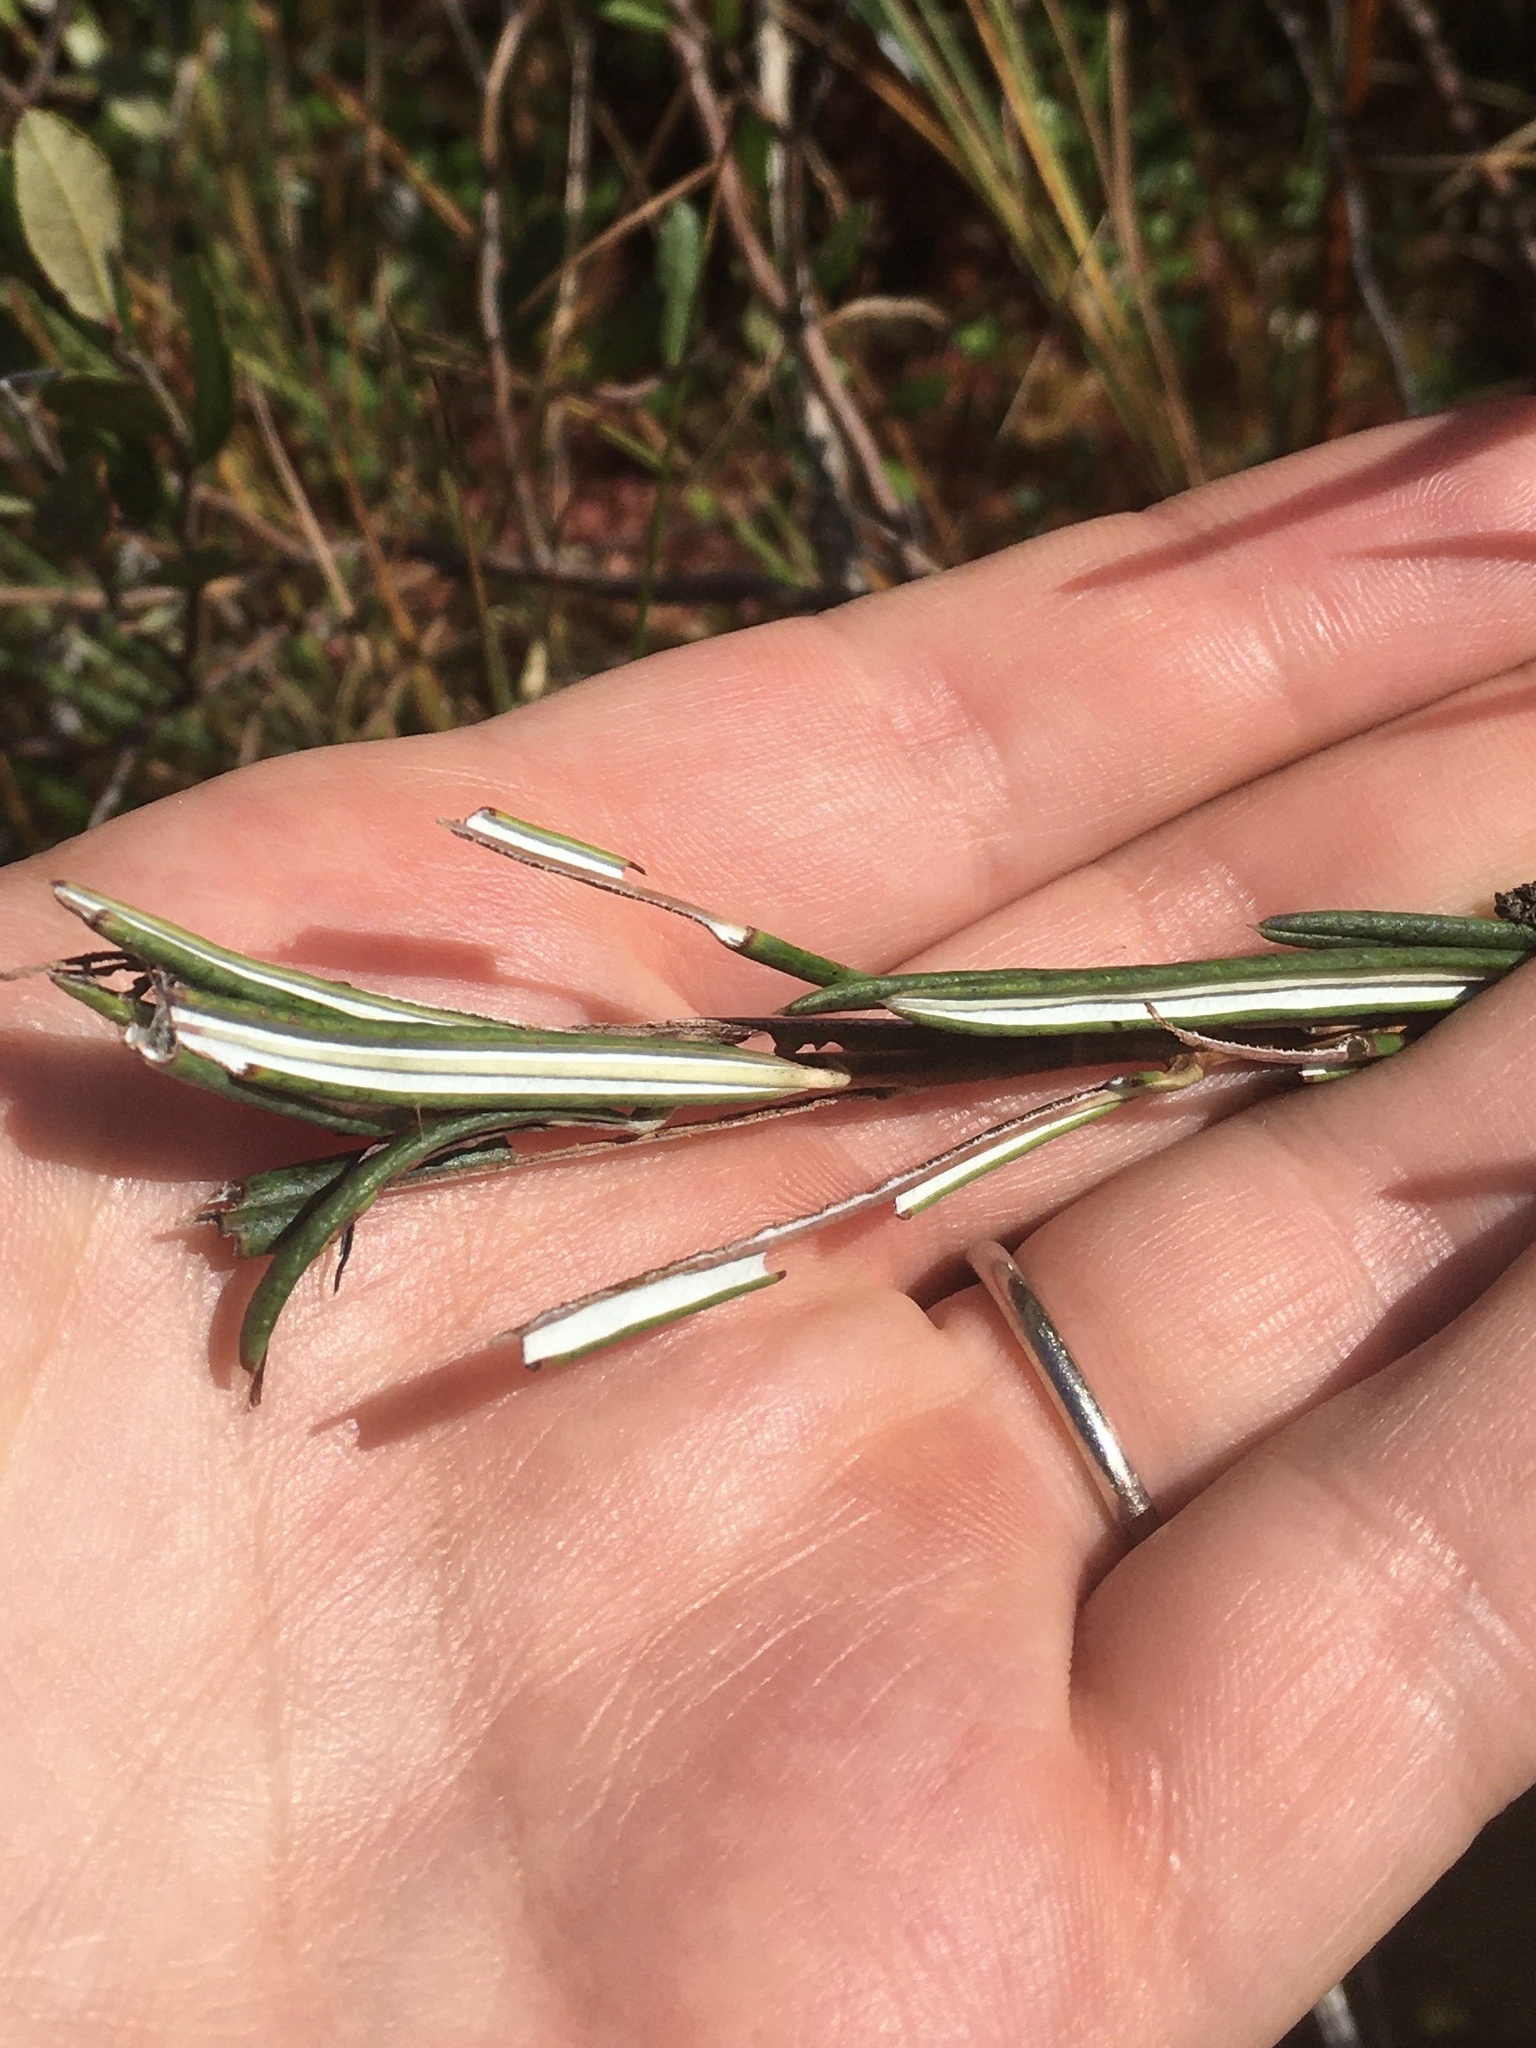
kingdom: Plantae
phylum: Tracheophyta
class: Magnoliopsida
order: Ericales
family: Ericaceae
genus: Andromeda
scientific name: Andromeda polifolia
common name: Bog-rosemary
